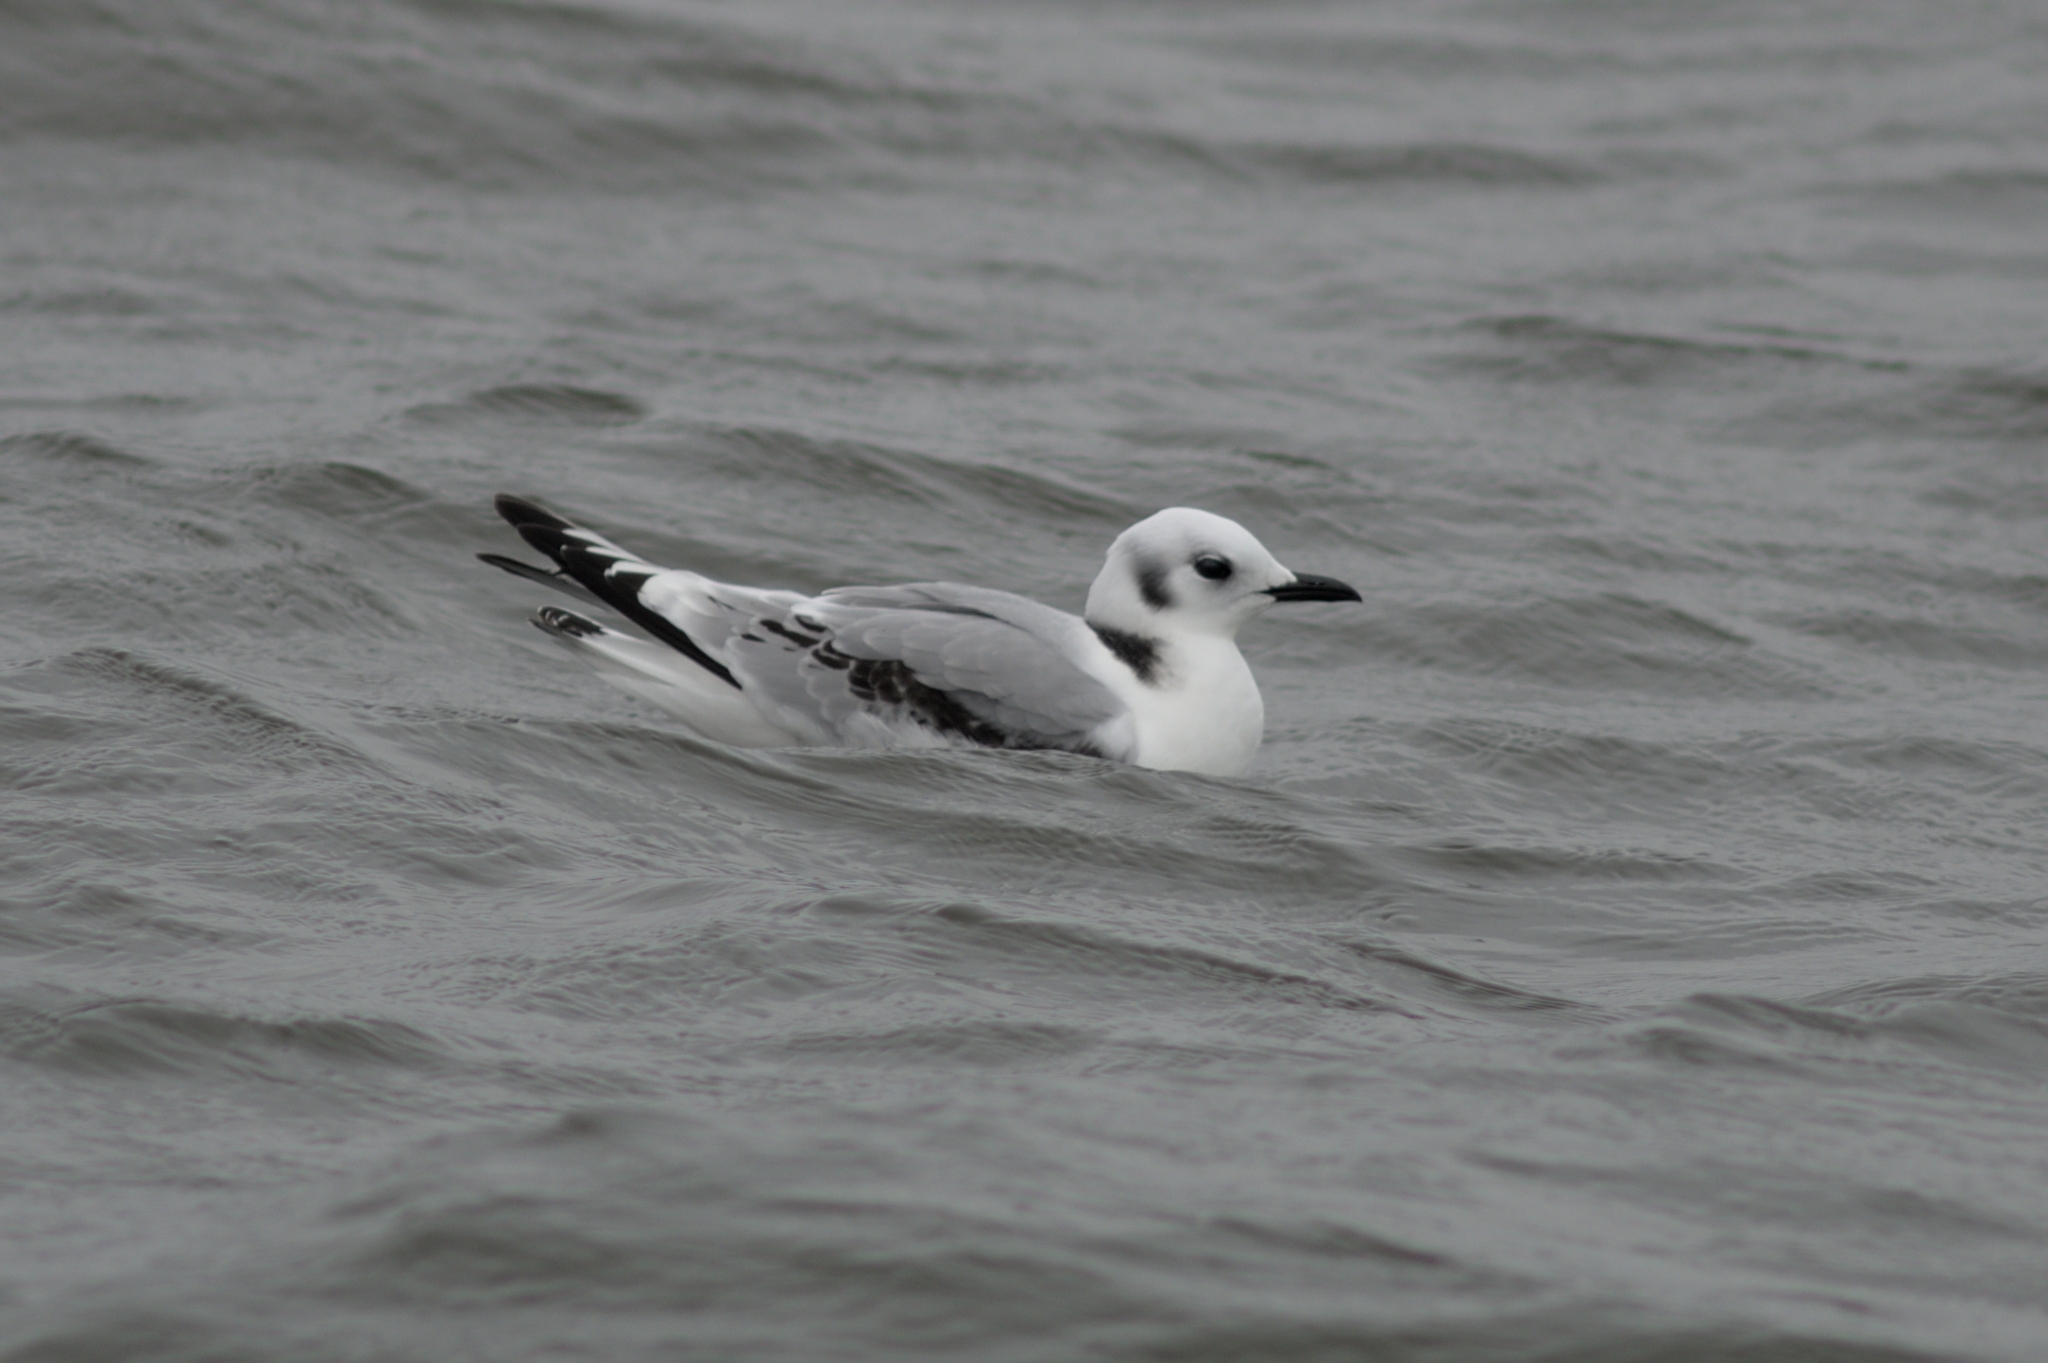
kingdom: Animalia
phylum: Chordata
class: Aves
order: Charadriiformes
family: Laridae
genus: Rissa
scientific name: Rissa tridactyla
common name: Black-legged kittiwake
